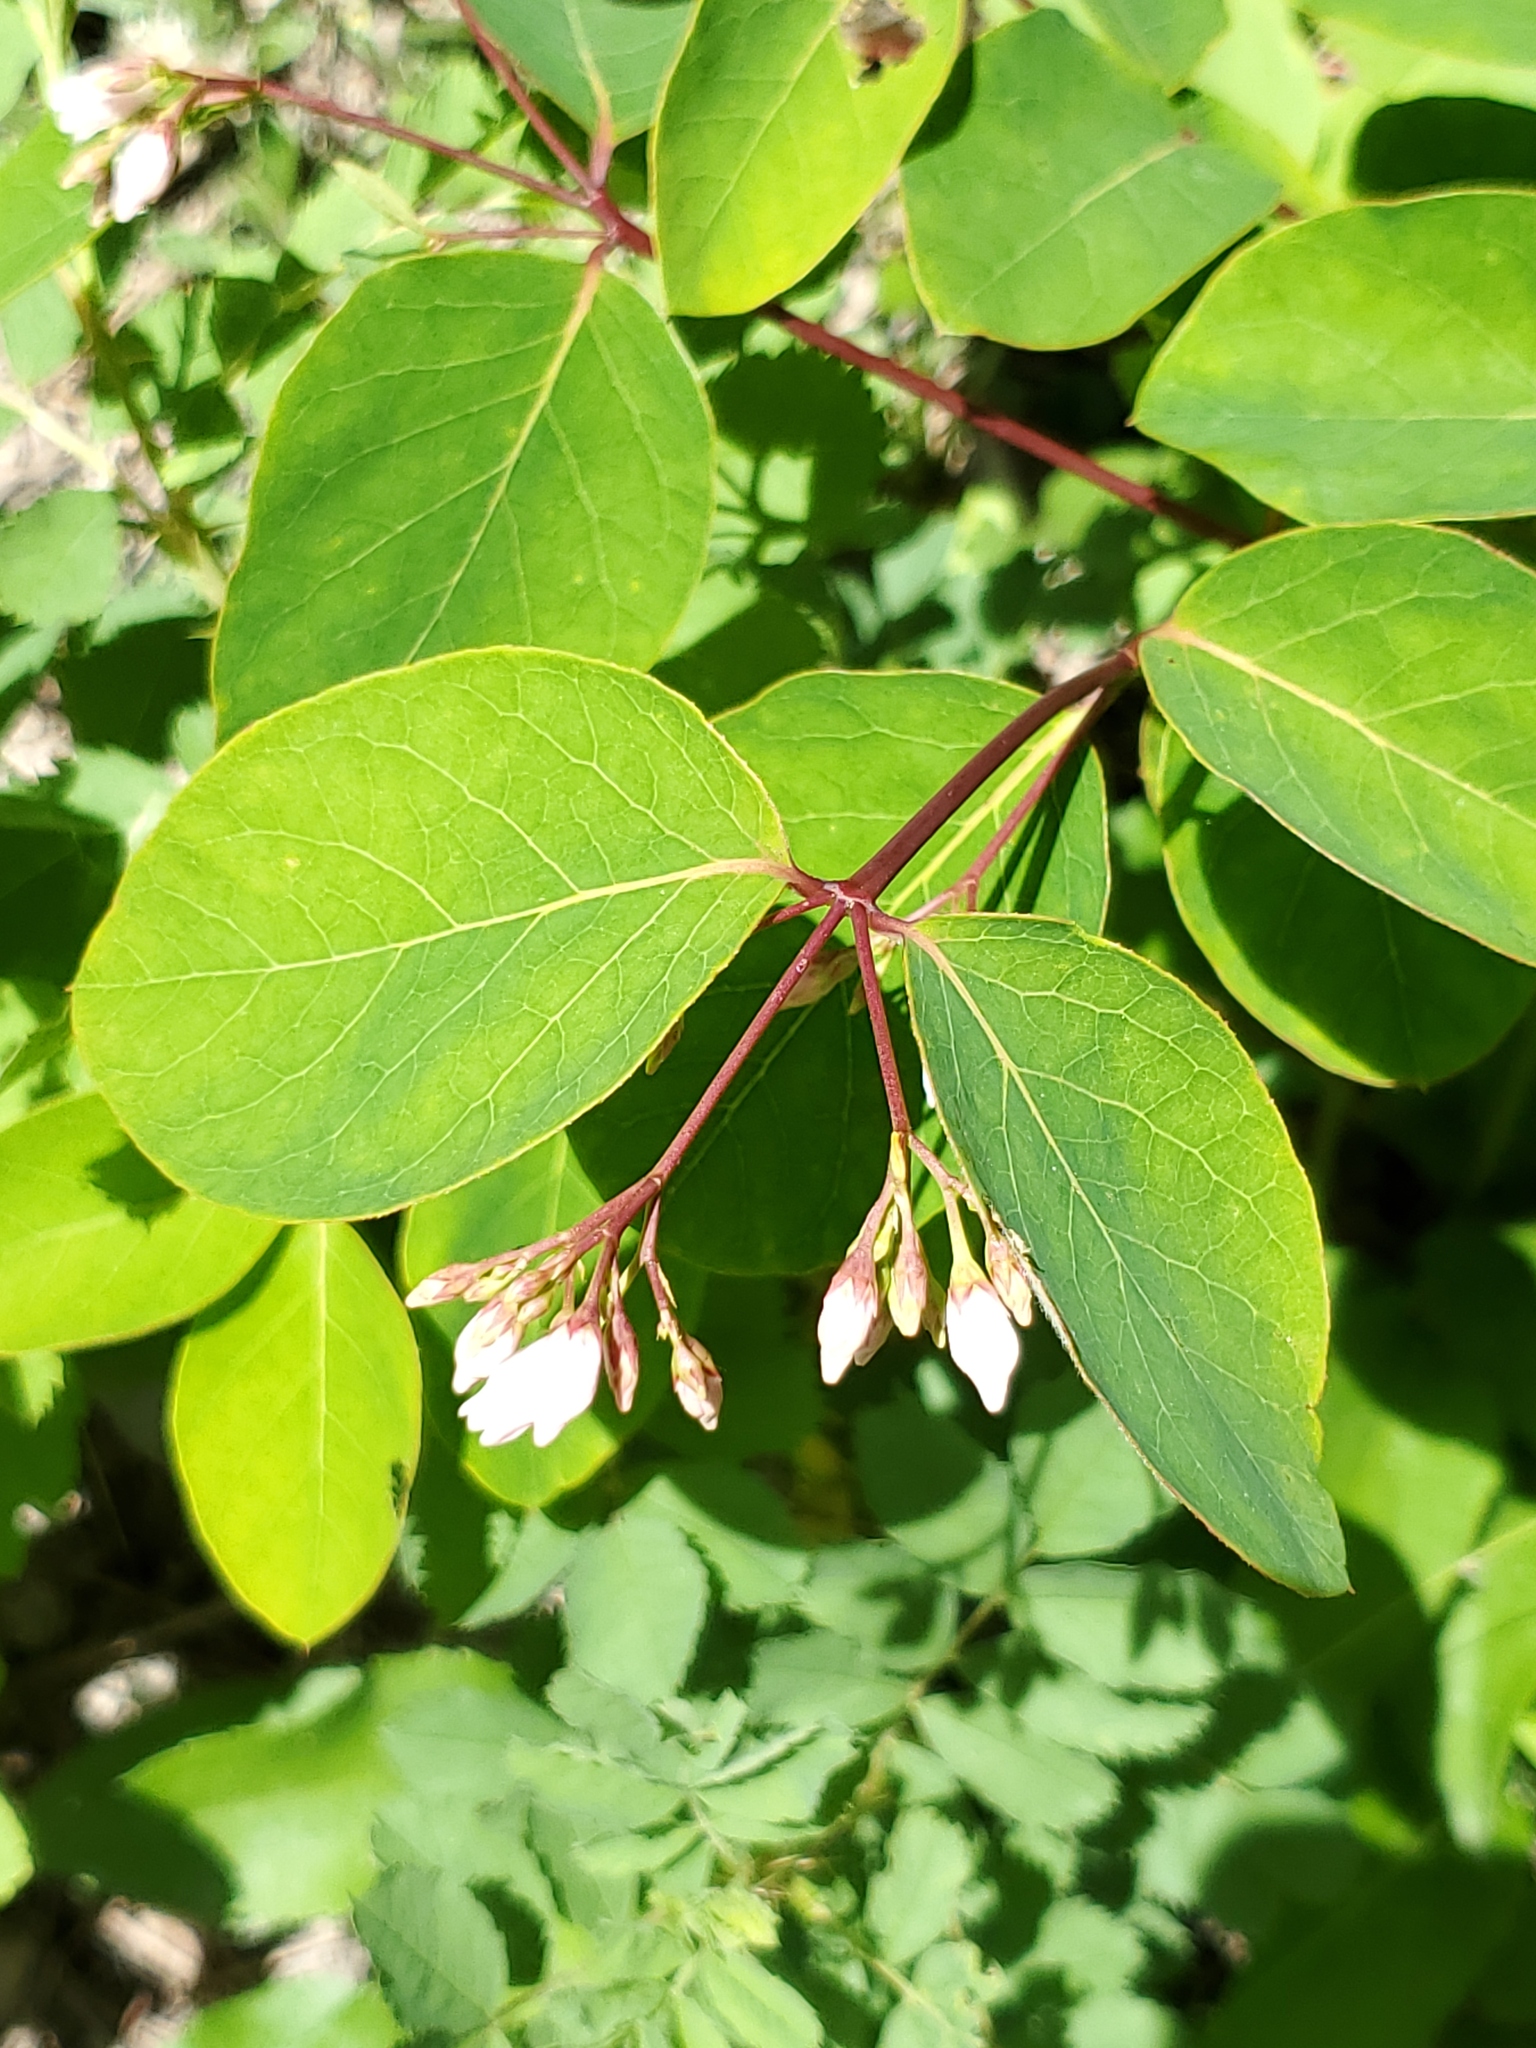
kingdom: Plantae
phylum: Tracheophyta
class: Magnoliopsida
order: Gentianales
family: Apocynaceae
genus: Apocynum
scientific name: Apocynum androsaemifolium
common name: Spreading dogbane
